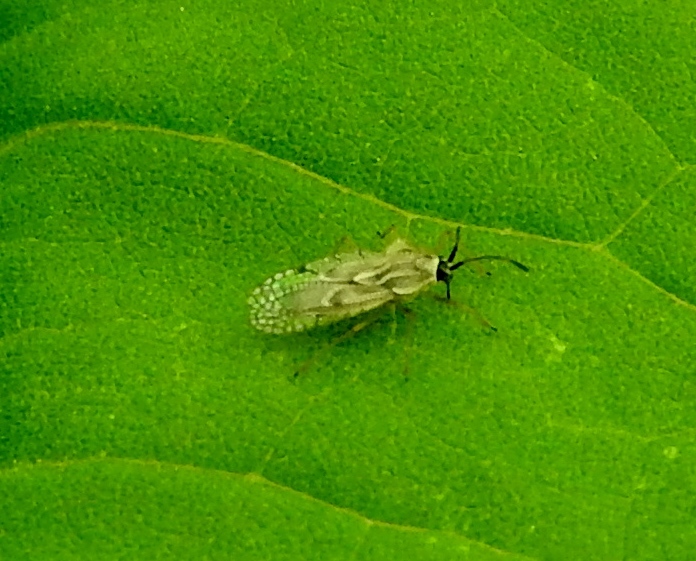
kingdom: Animalia
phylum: Arthropoda
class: Insecta
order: Hemiptera
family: Tingidae
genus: Gargaphia
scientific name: Gargaphia
